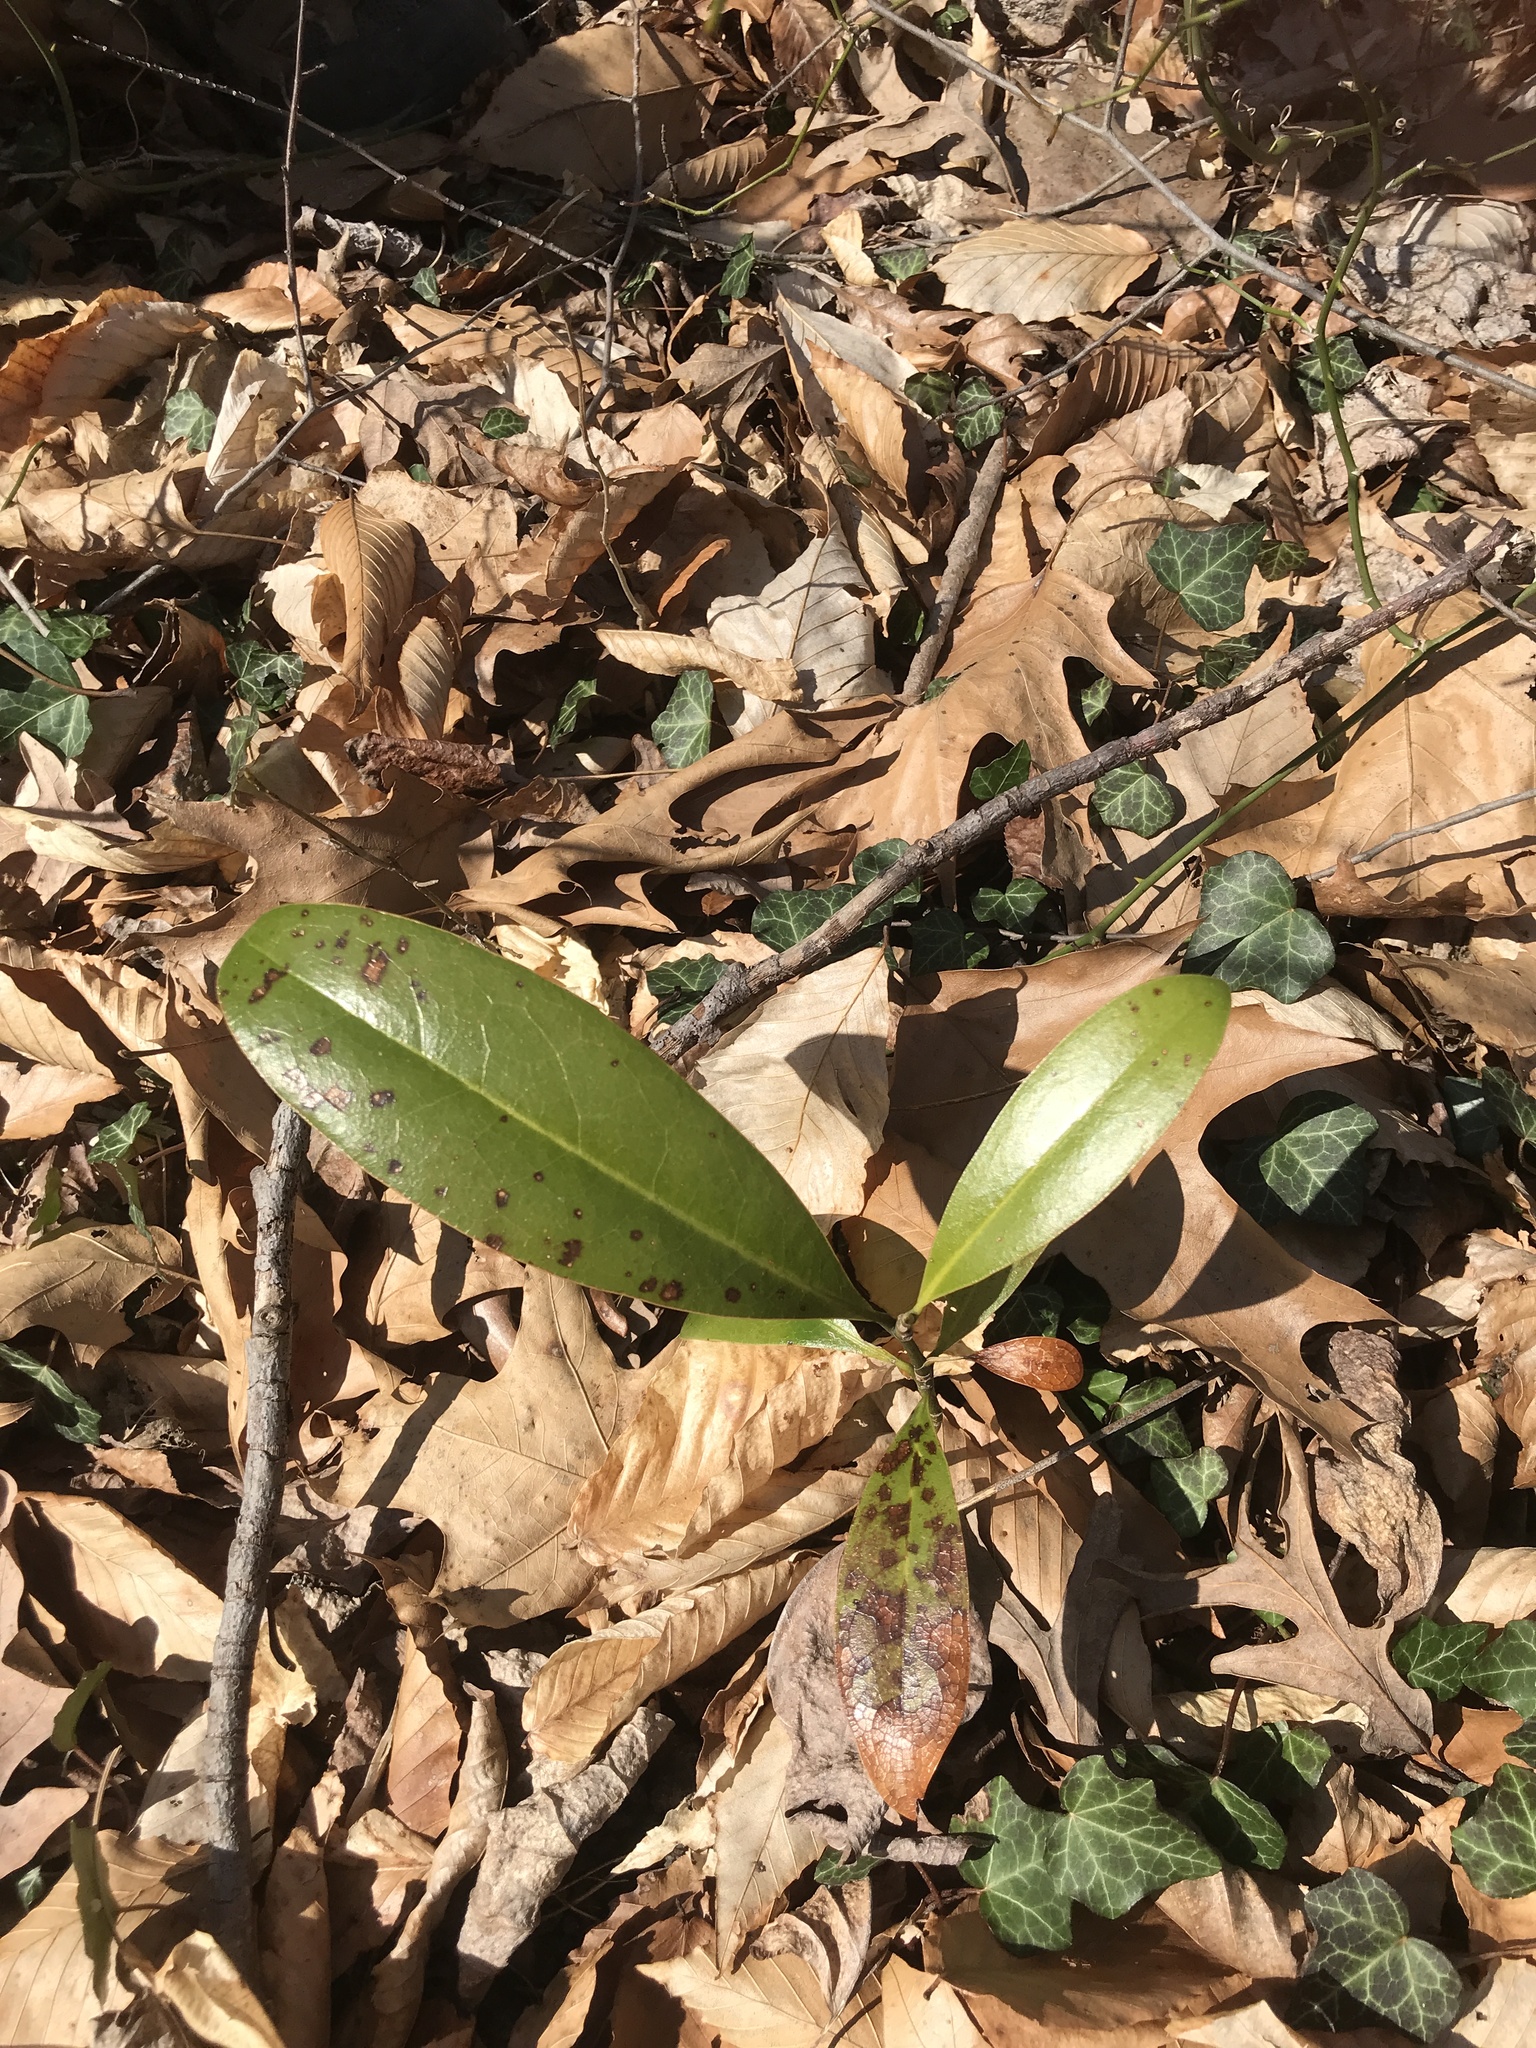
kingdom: Plantae
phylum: Tracheophyta
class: Magnoliopsida
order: Magnoliales
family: Magnoliaceae
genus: Magnolia
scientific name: Magnolia virginiana
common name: Swamp bay
